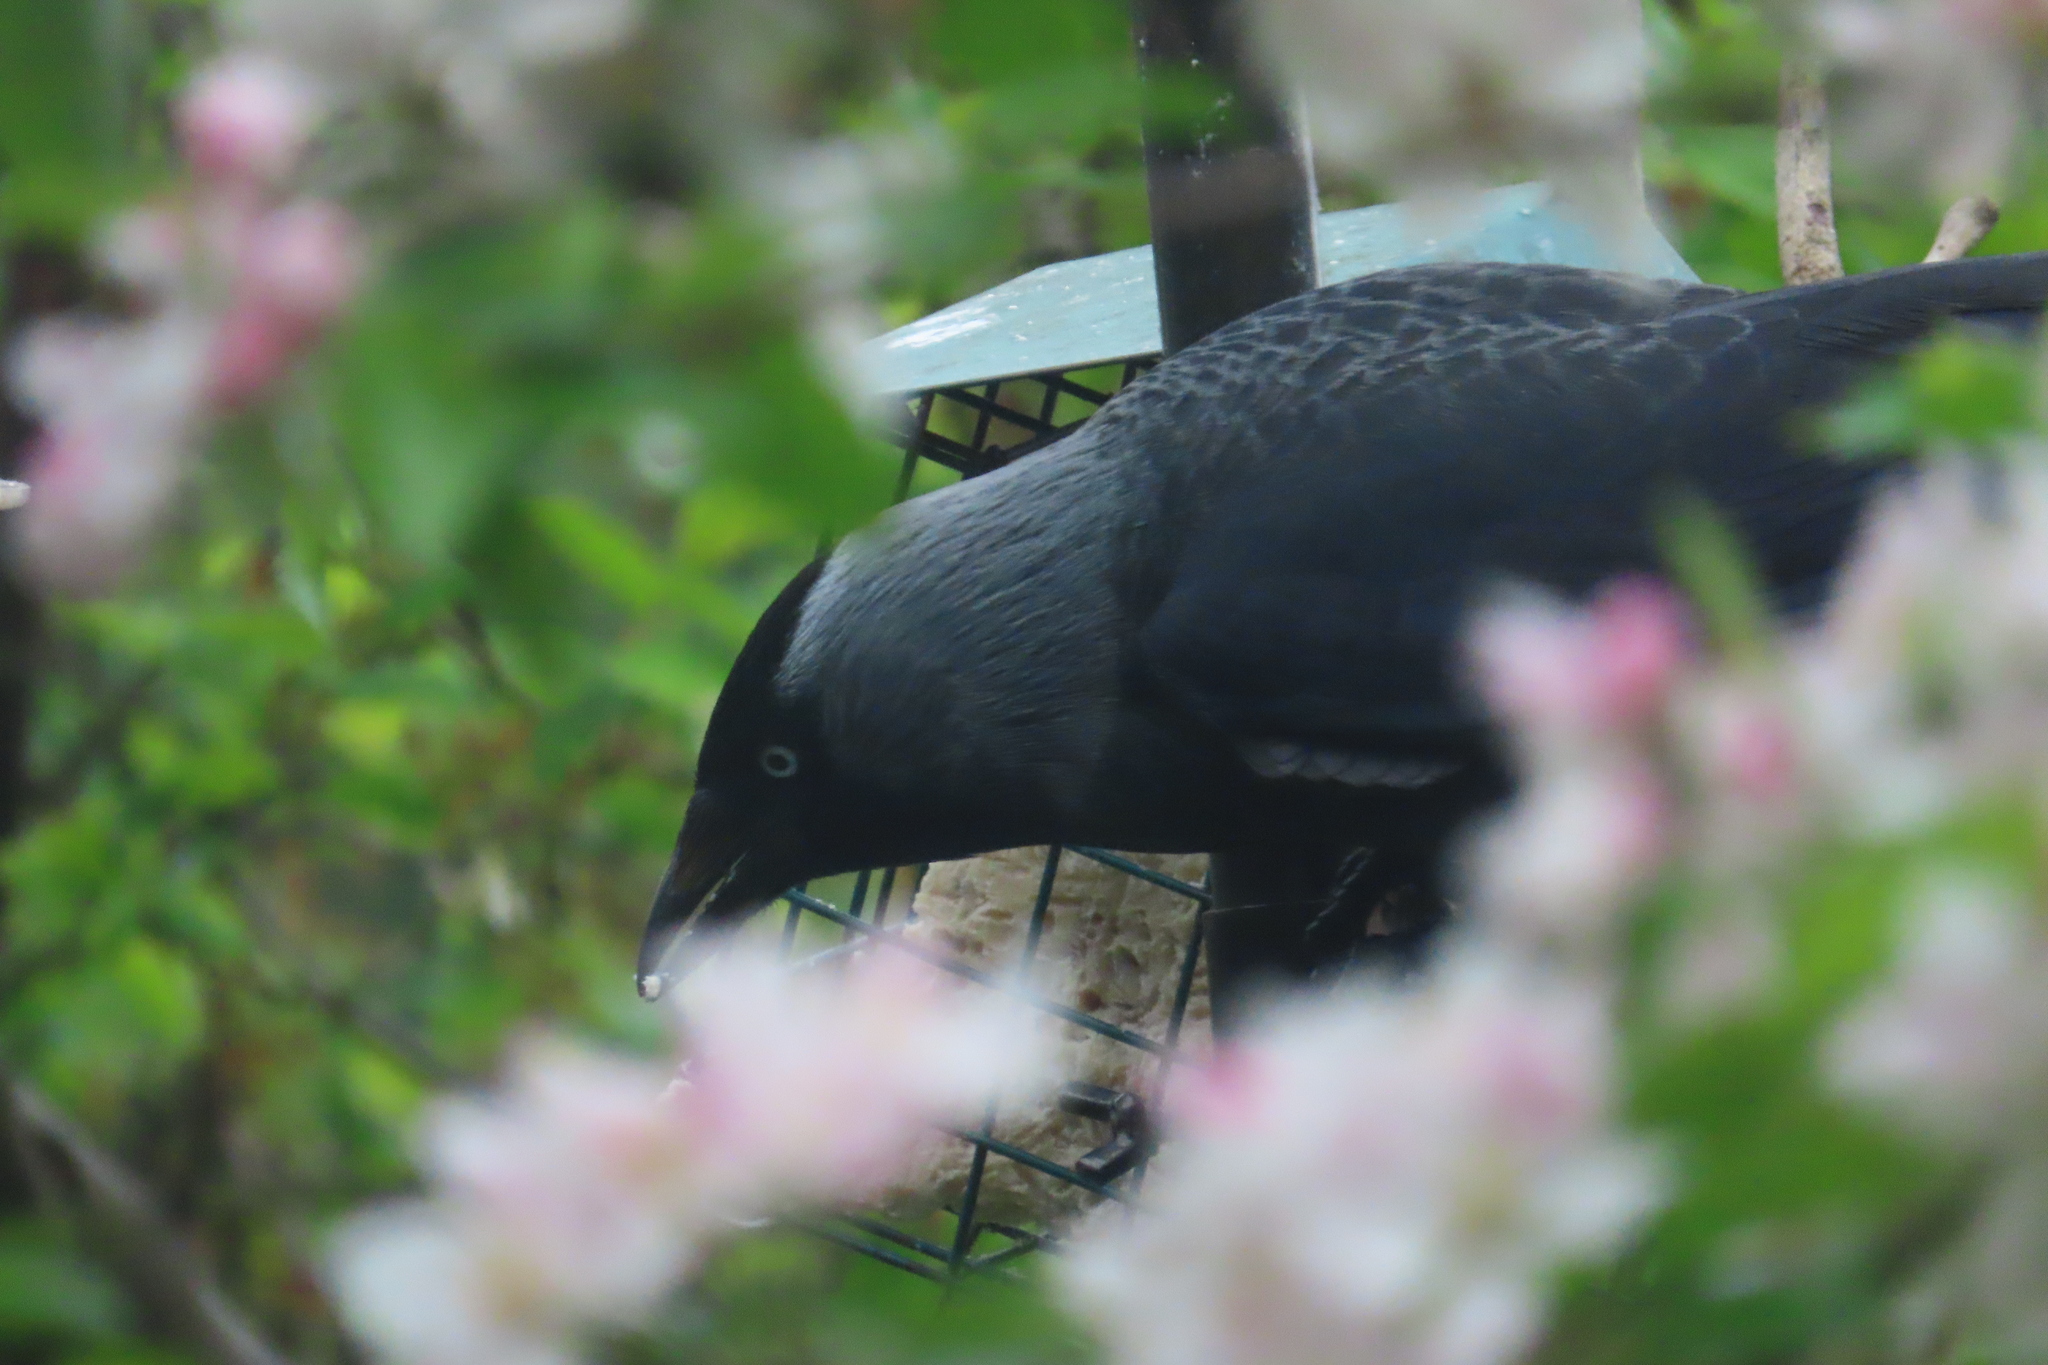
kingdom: Animalia
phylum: Chordata
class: Aves
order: Passeriformes
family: Corvidae
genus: Coloeus
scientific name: Coloeus monedula
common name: Western jackdaw
